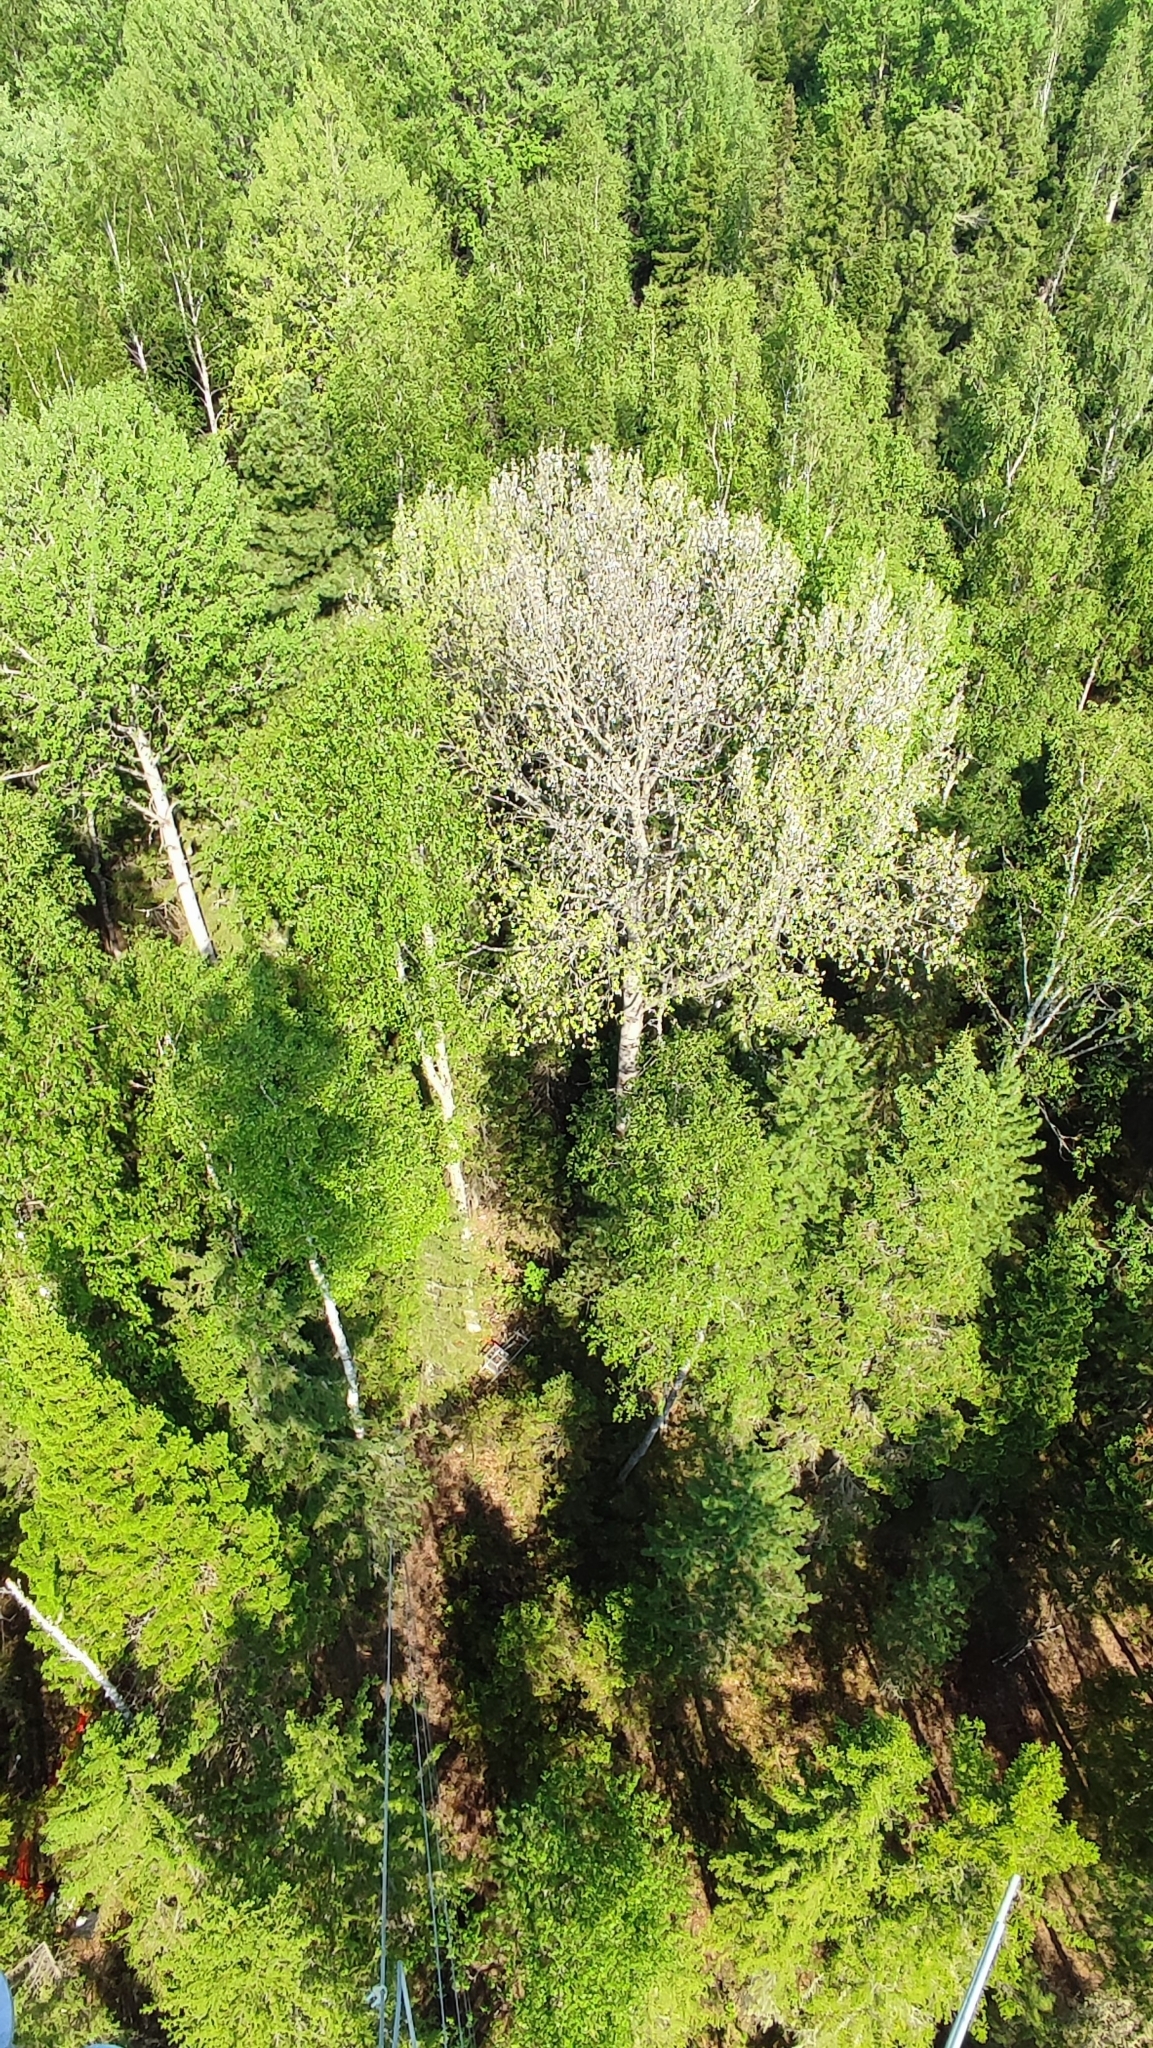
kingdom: Plantae
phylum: Tracheophyta
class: Magnoliopsida
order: Malpighiales
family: Salicaceae
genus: Populus
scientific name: Populus tremula
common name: European aspen
